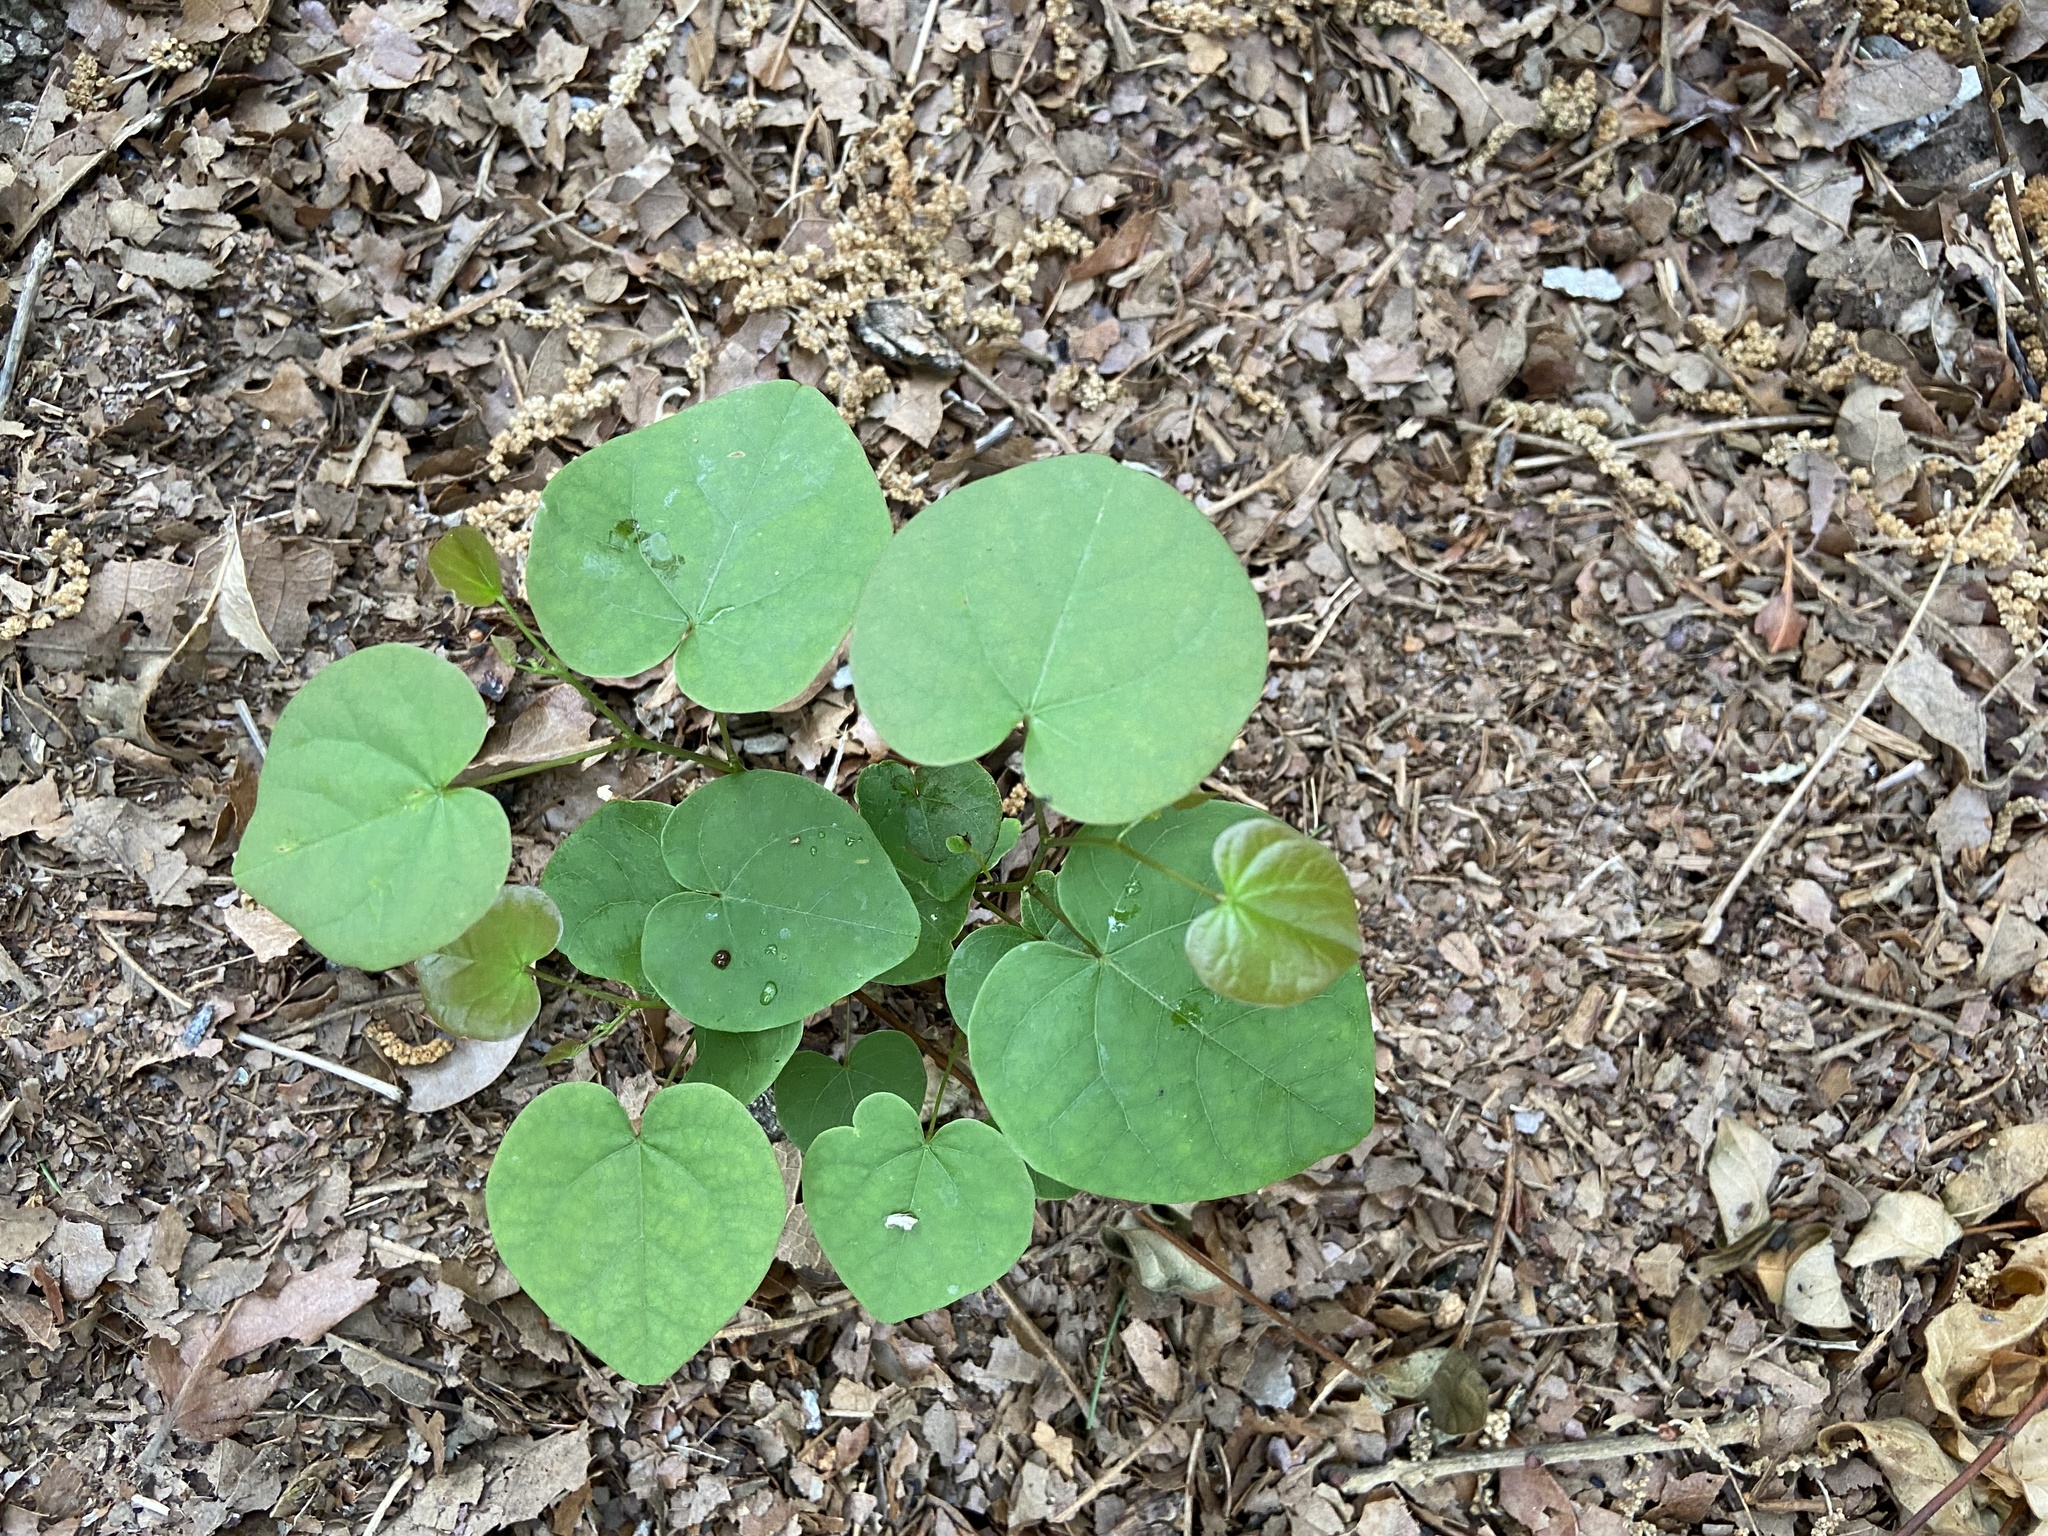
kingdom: Plantae
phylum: Tracheophyta
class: Magnoliopsida
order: Fabales
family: Fabaceae
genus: Cercis
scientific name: Cercis canadensis
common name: Eastern redbud
